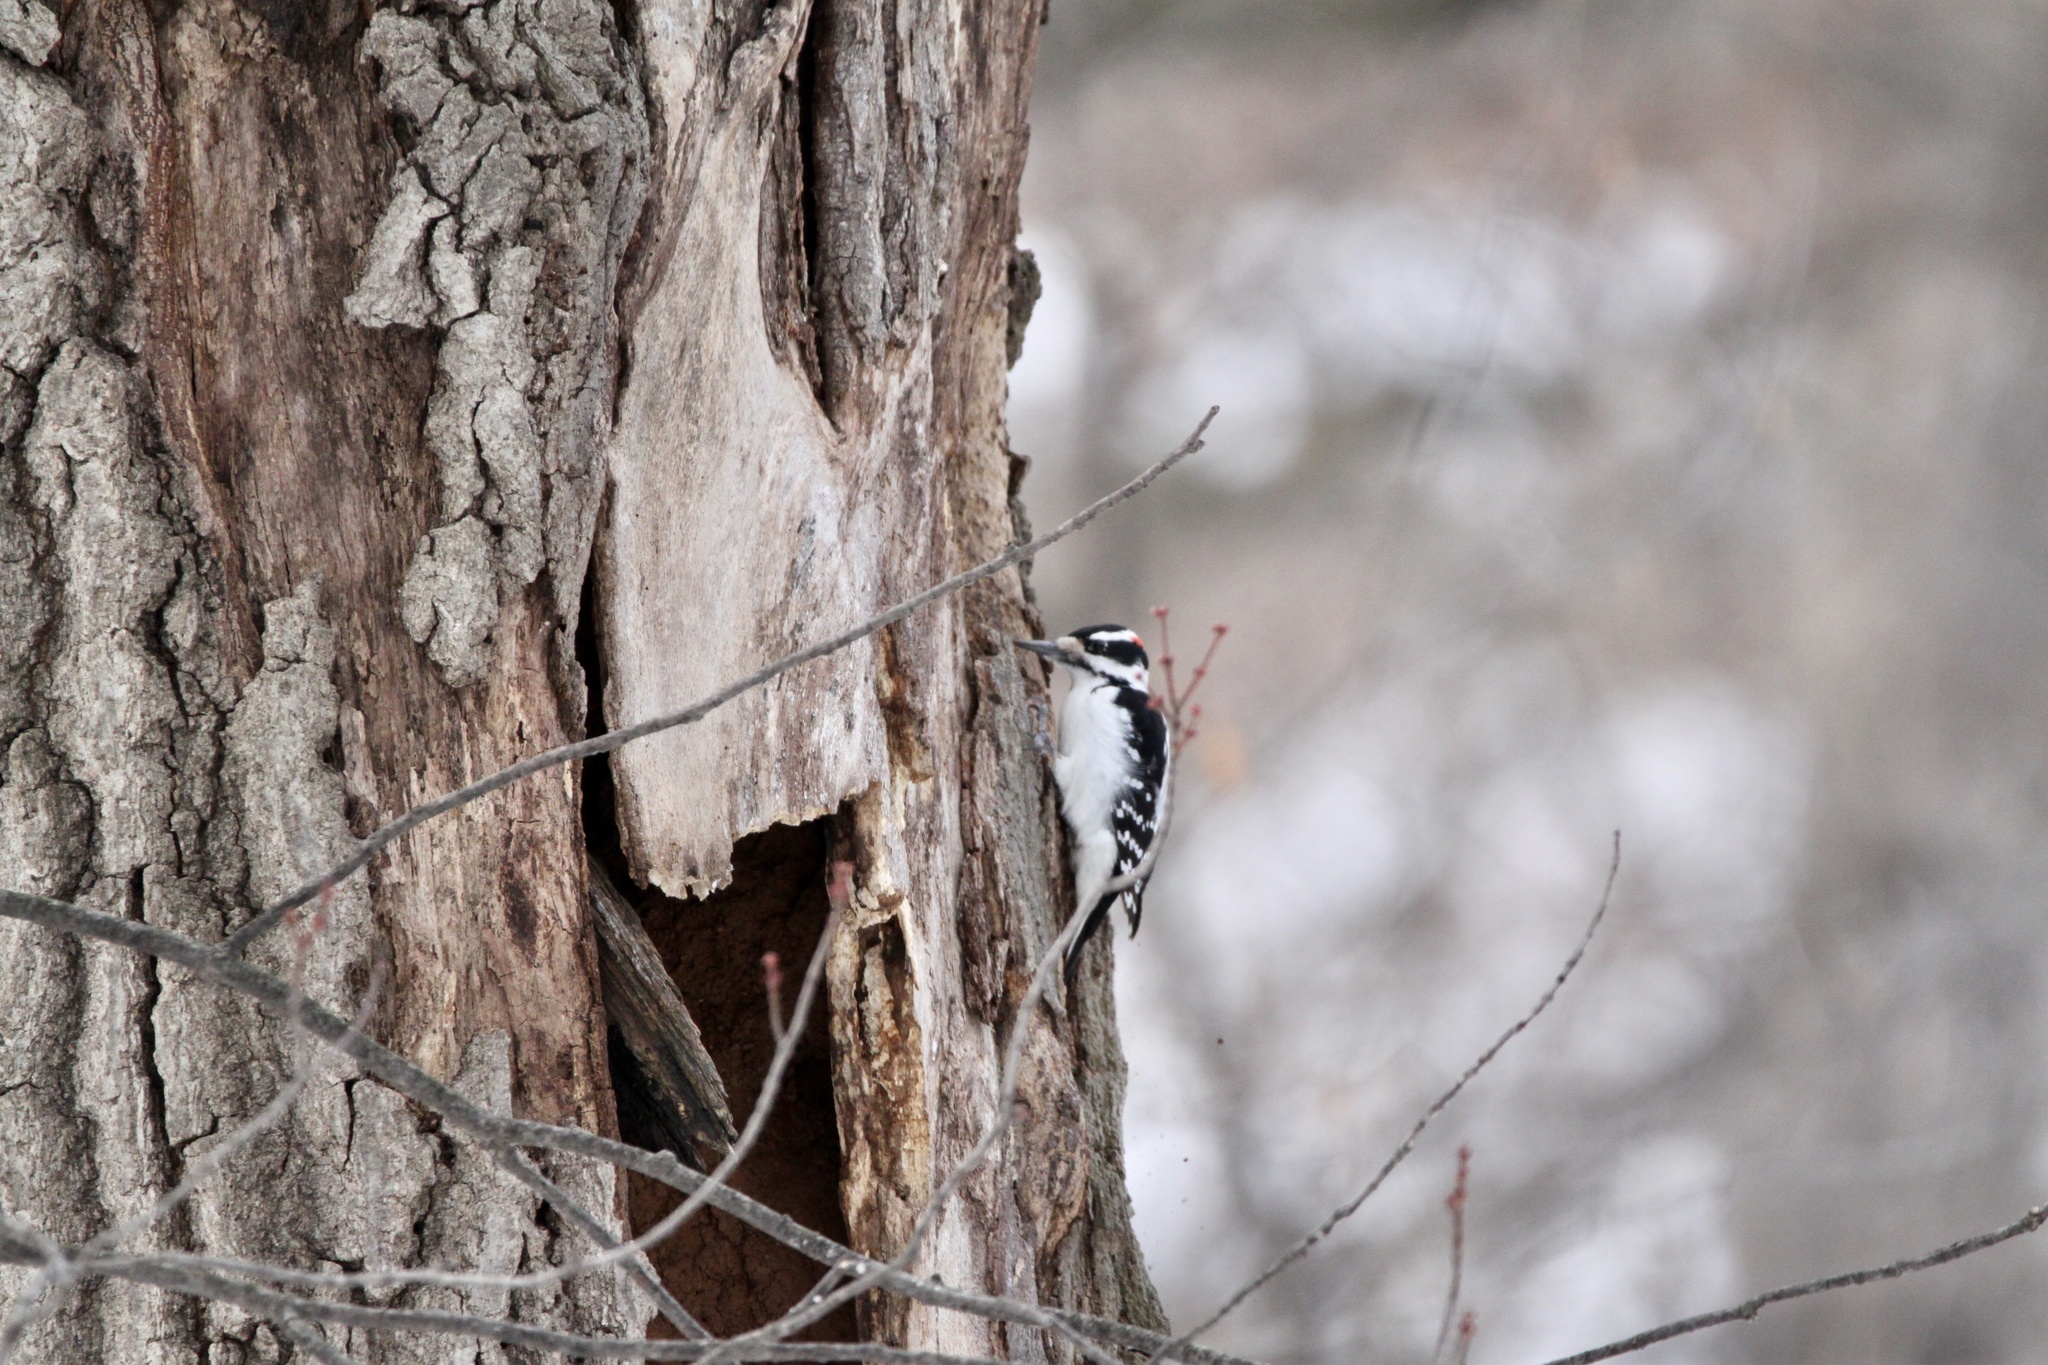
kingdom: Animalia
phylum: Chordata
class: Aves
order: Piciformes
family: Picidae
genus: Leuconotopicus
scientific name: Leuconotopicus villosus
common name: Hairy woodpecker
